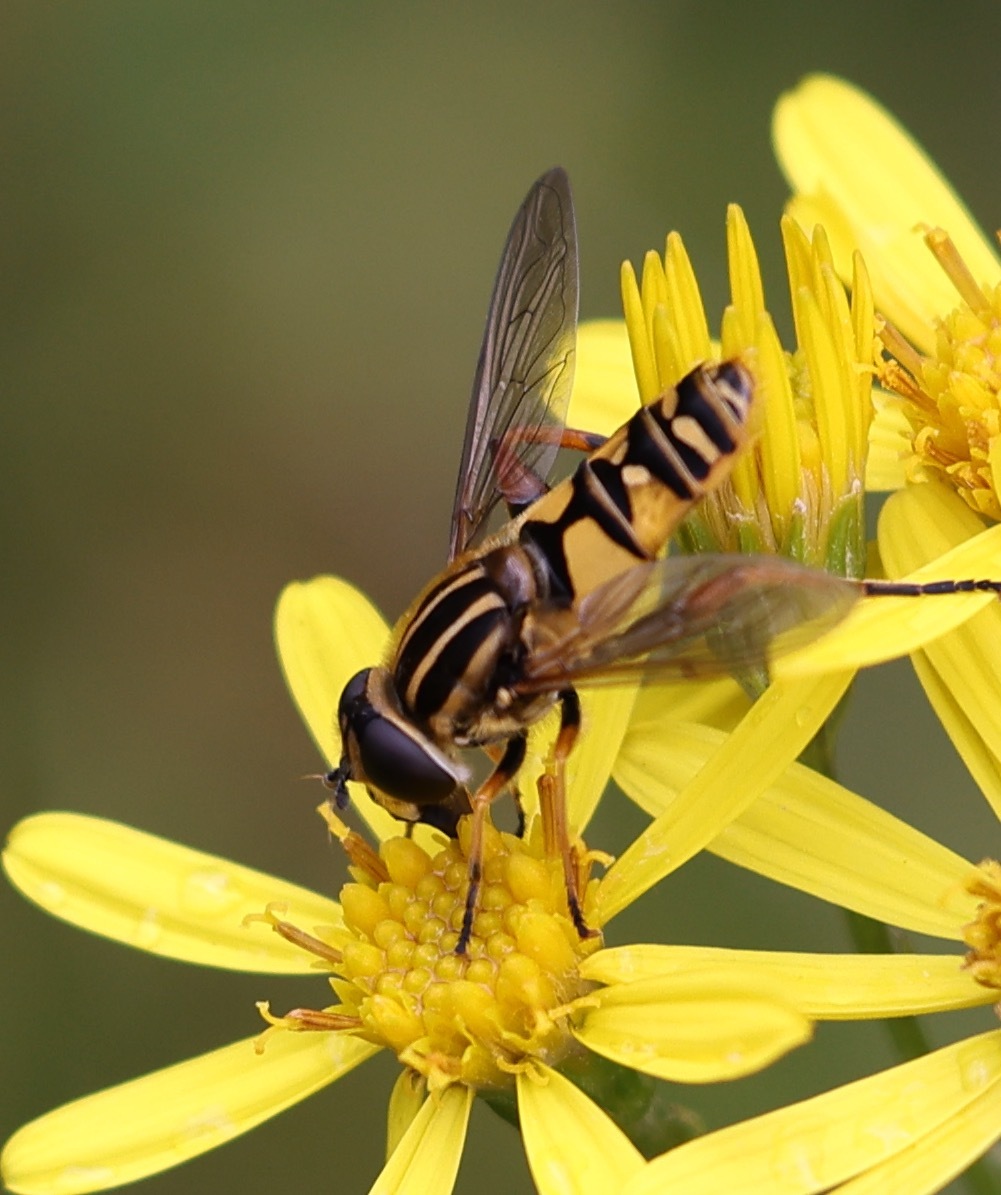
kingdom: Animalia
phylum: Arthropoda
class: Insecta
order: Diptera
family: Syrphidae
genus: Helophilus
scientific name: Helophilus pendulus
